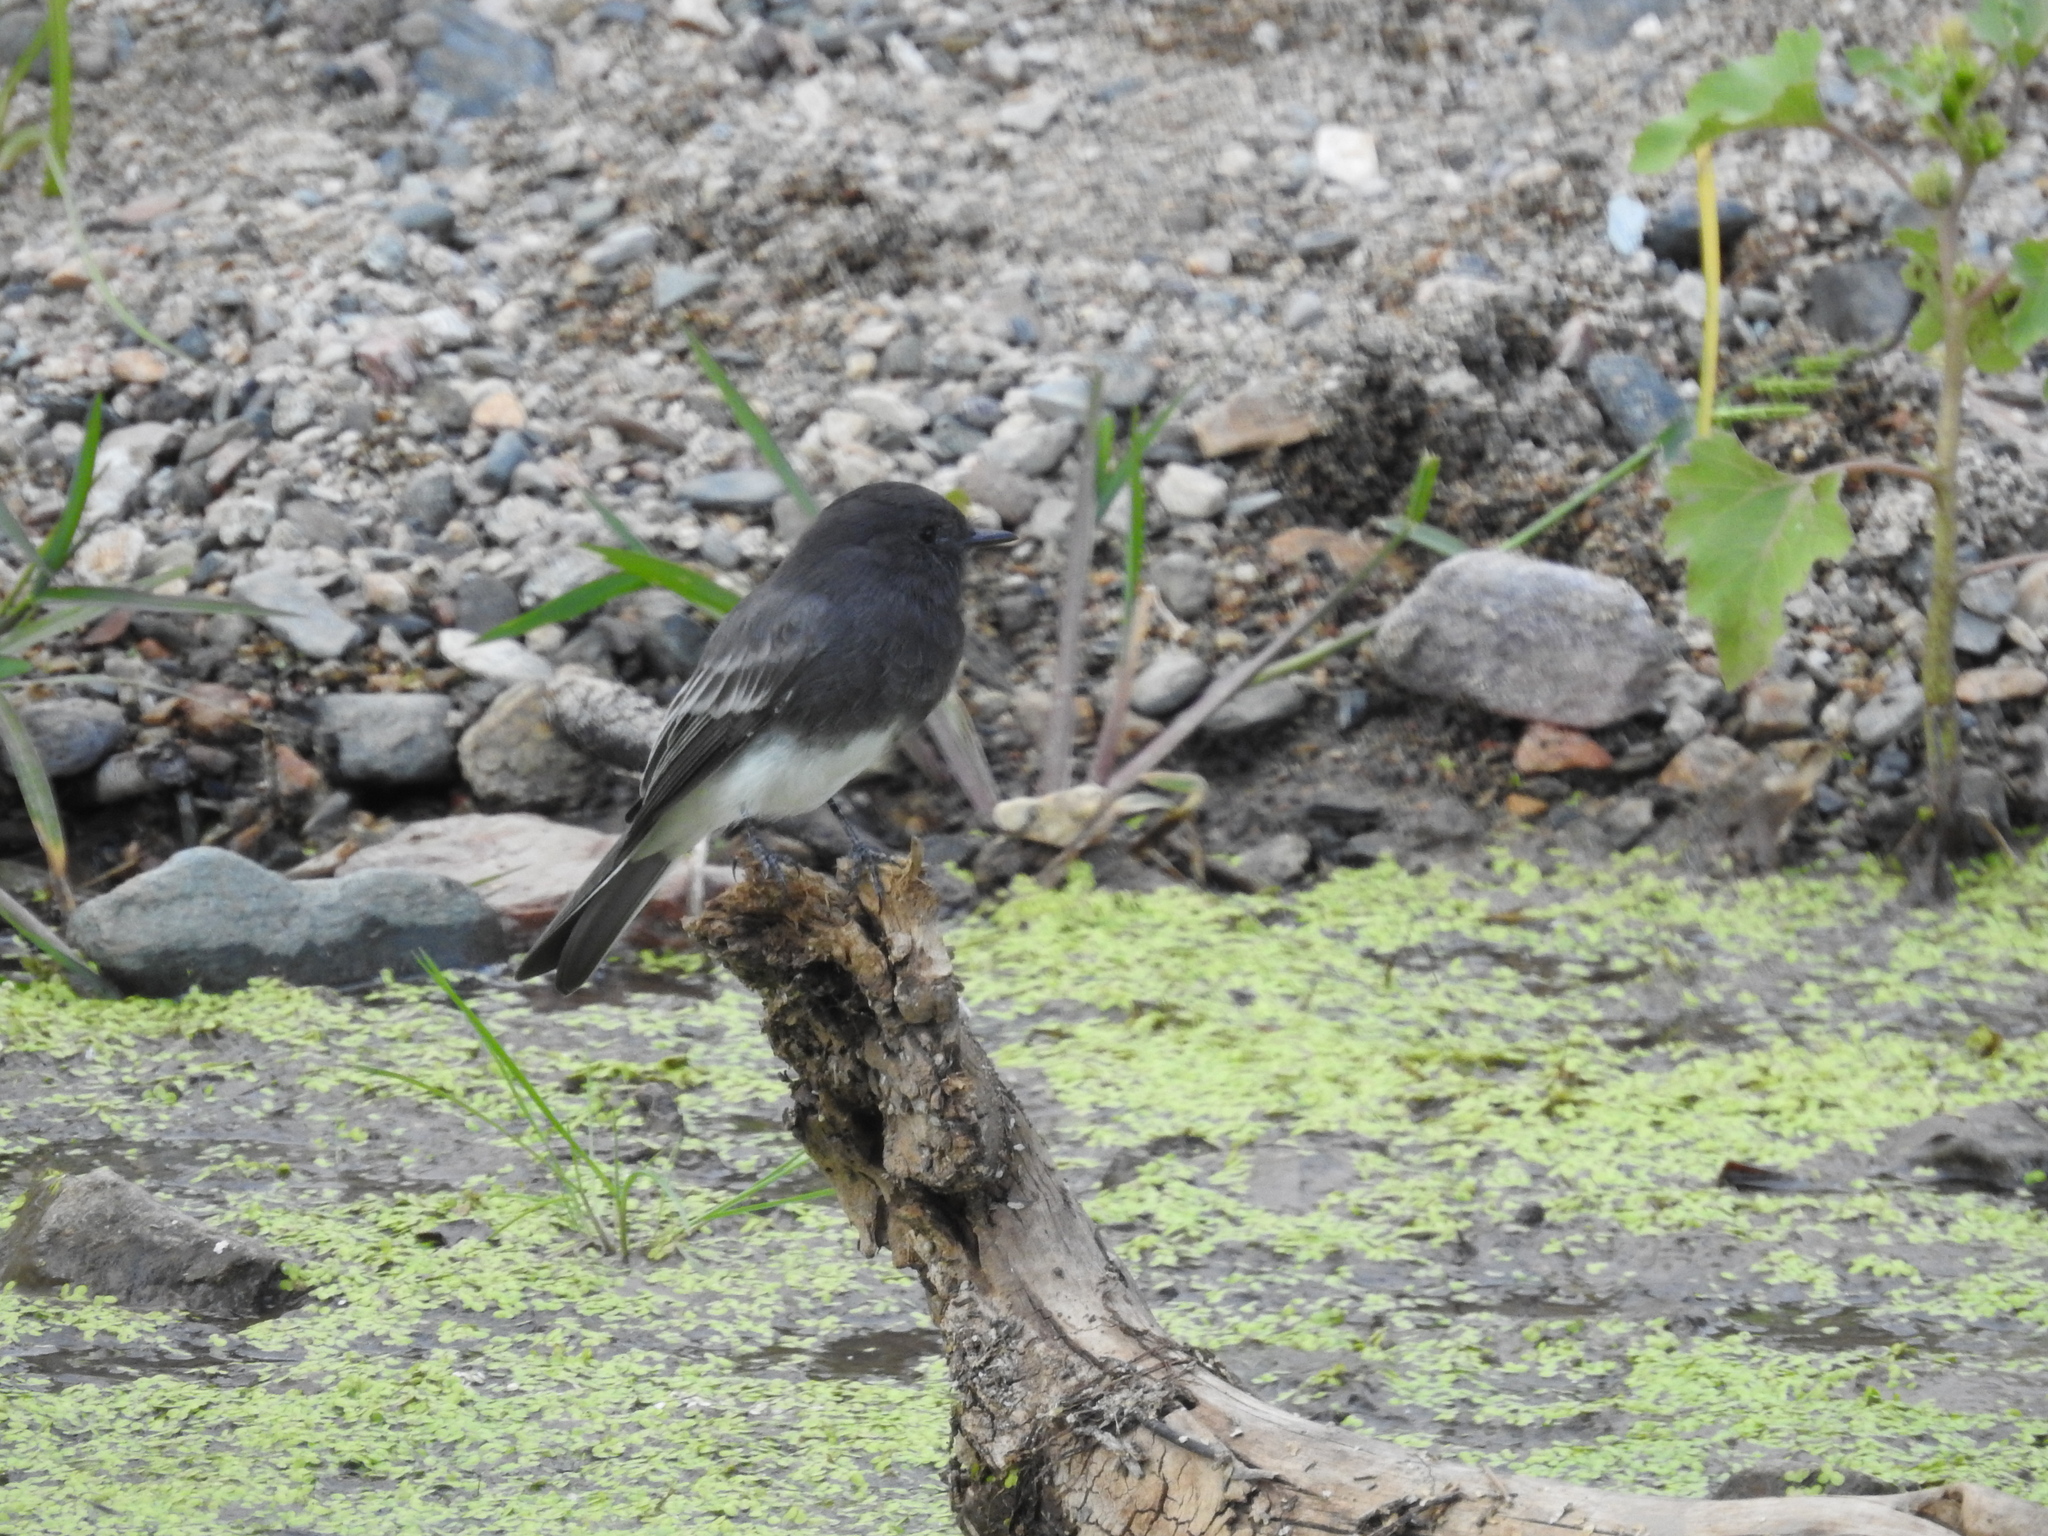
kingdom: Animalia
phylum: Chordata
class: Aves
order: Passeriformes
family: Tyrannidae
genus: Sayornis
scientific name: Sayornis nigricans
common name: Black phoebe
